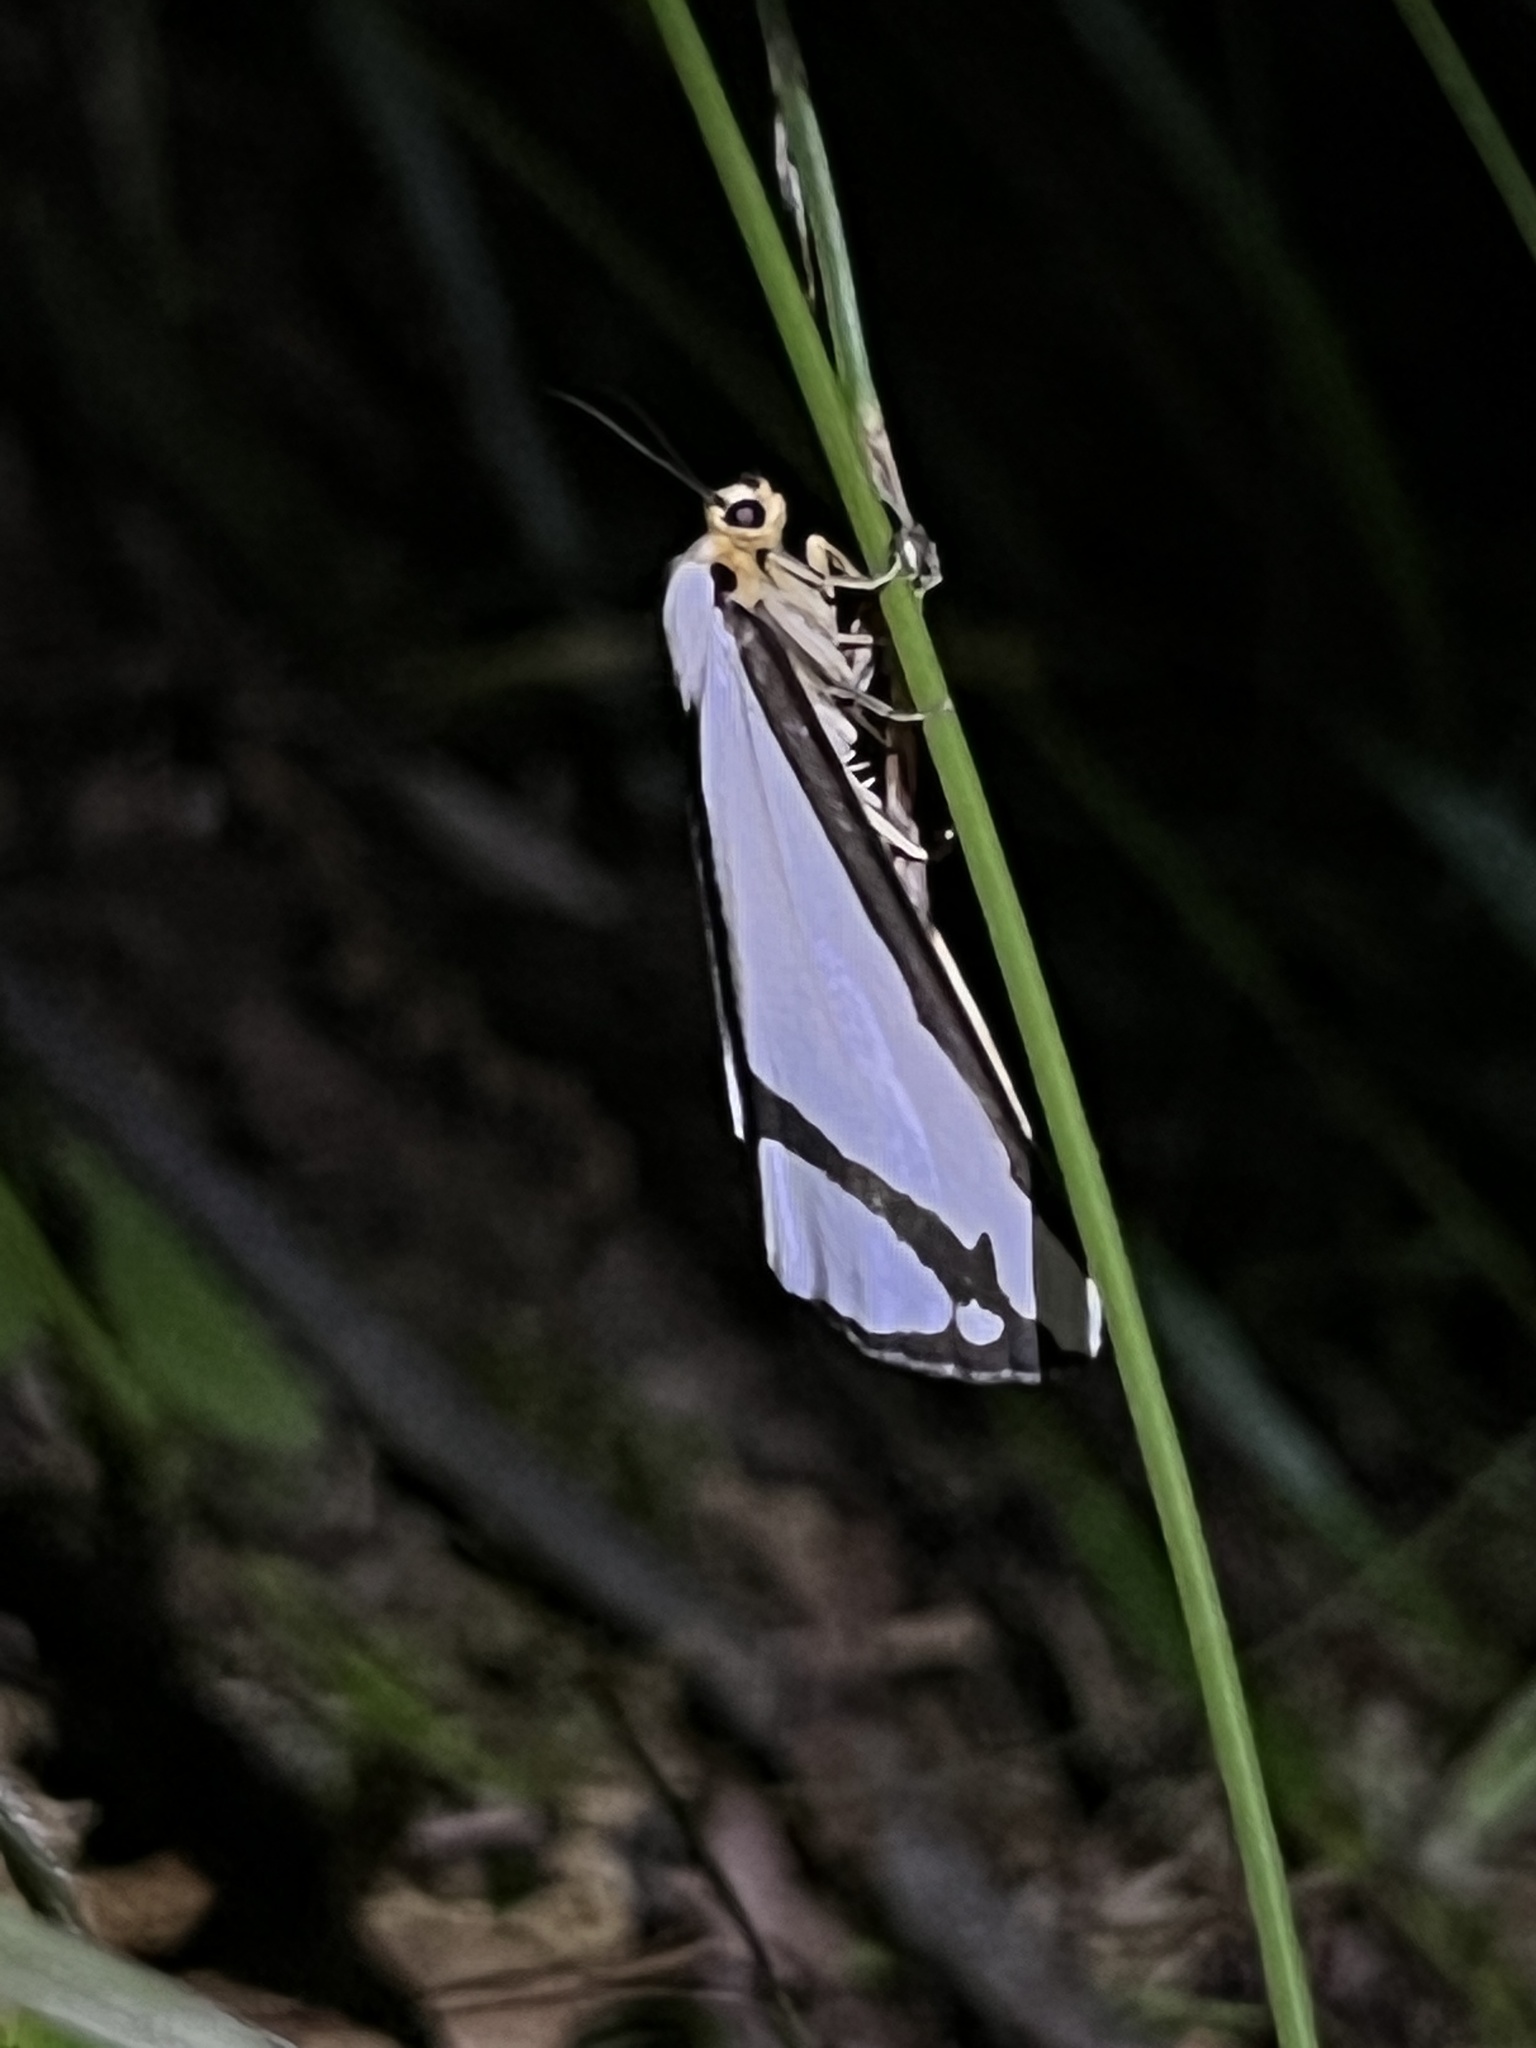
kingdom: Animalia
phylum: Arthropoda
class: Insecta
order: Lepidoptera
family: Erebidae
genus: Haploa
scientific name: Haploa lecontei
